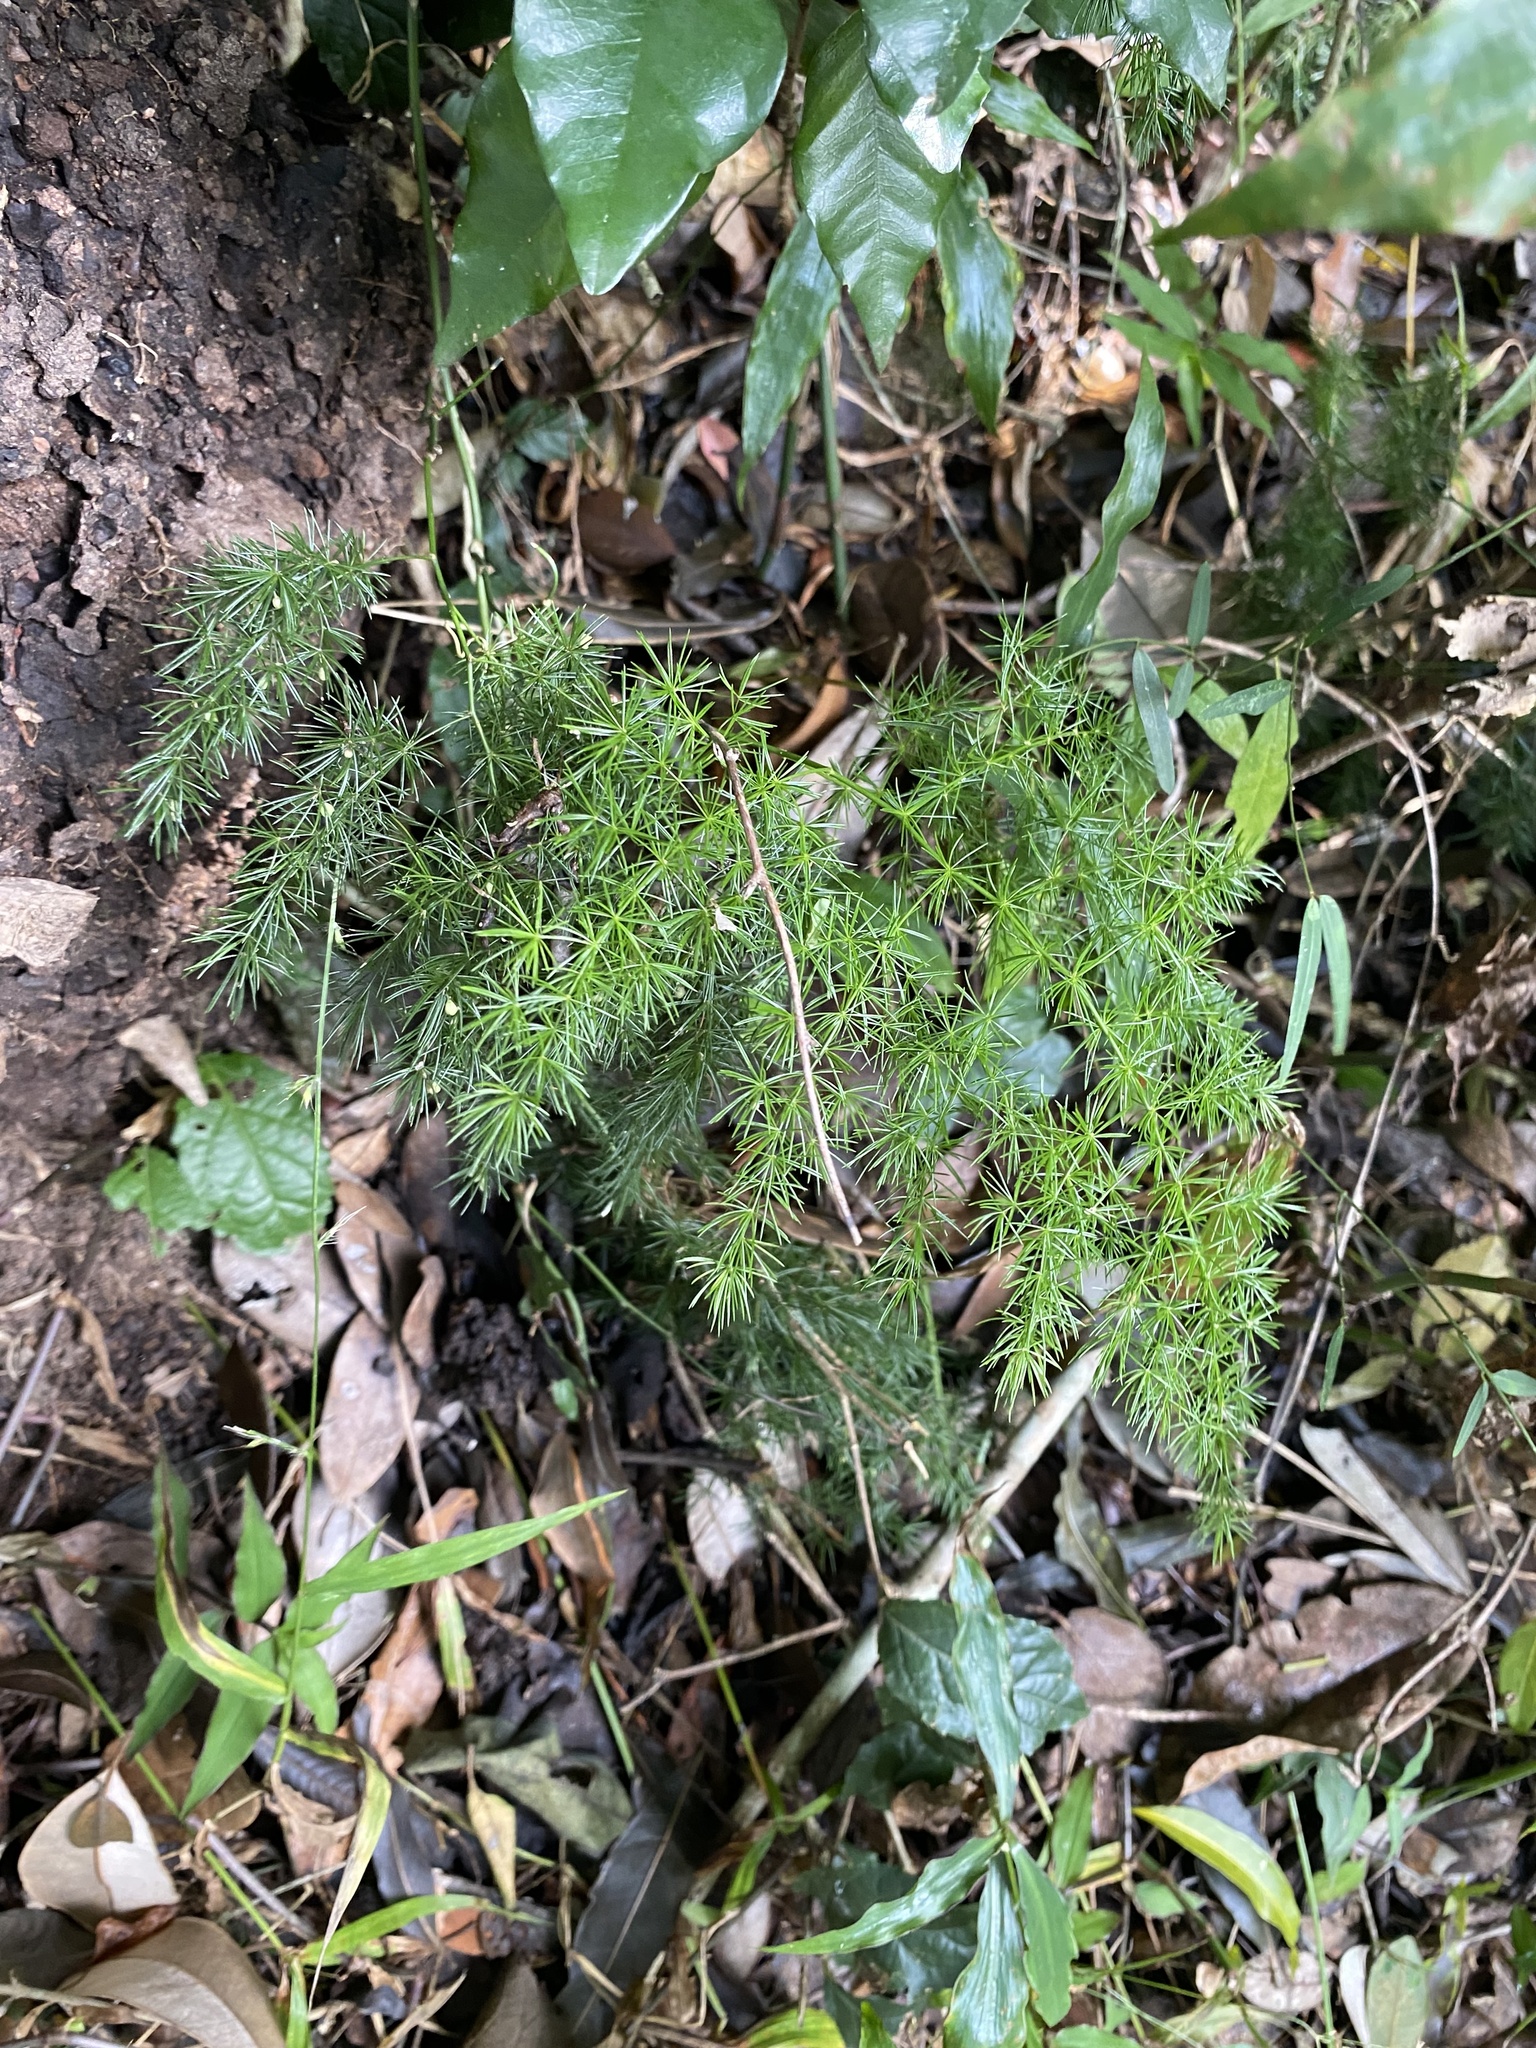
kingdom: Plantae
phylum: Tracheophyta
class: Liliopsida
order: Asparagales
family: Asparagaceae
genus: Asparagus
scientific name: Asparagus macowanii
